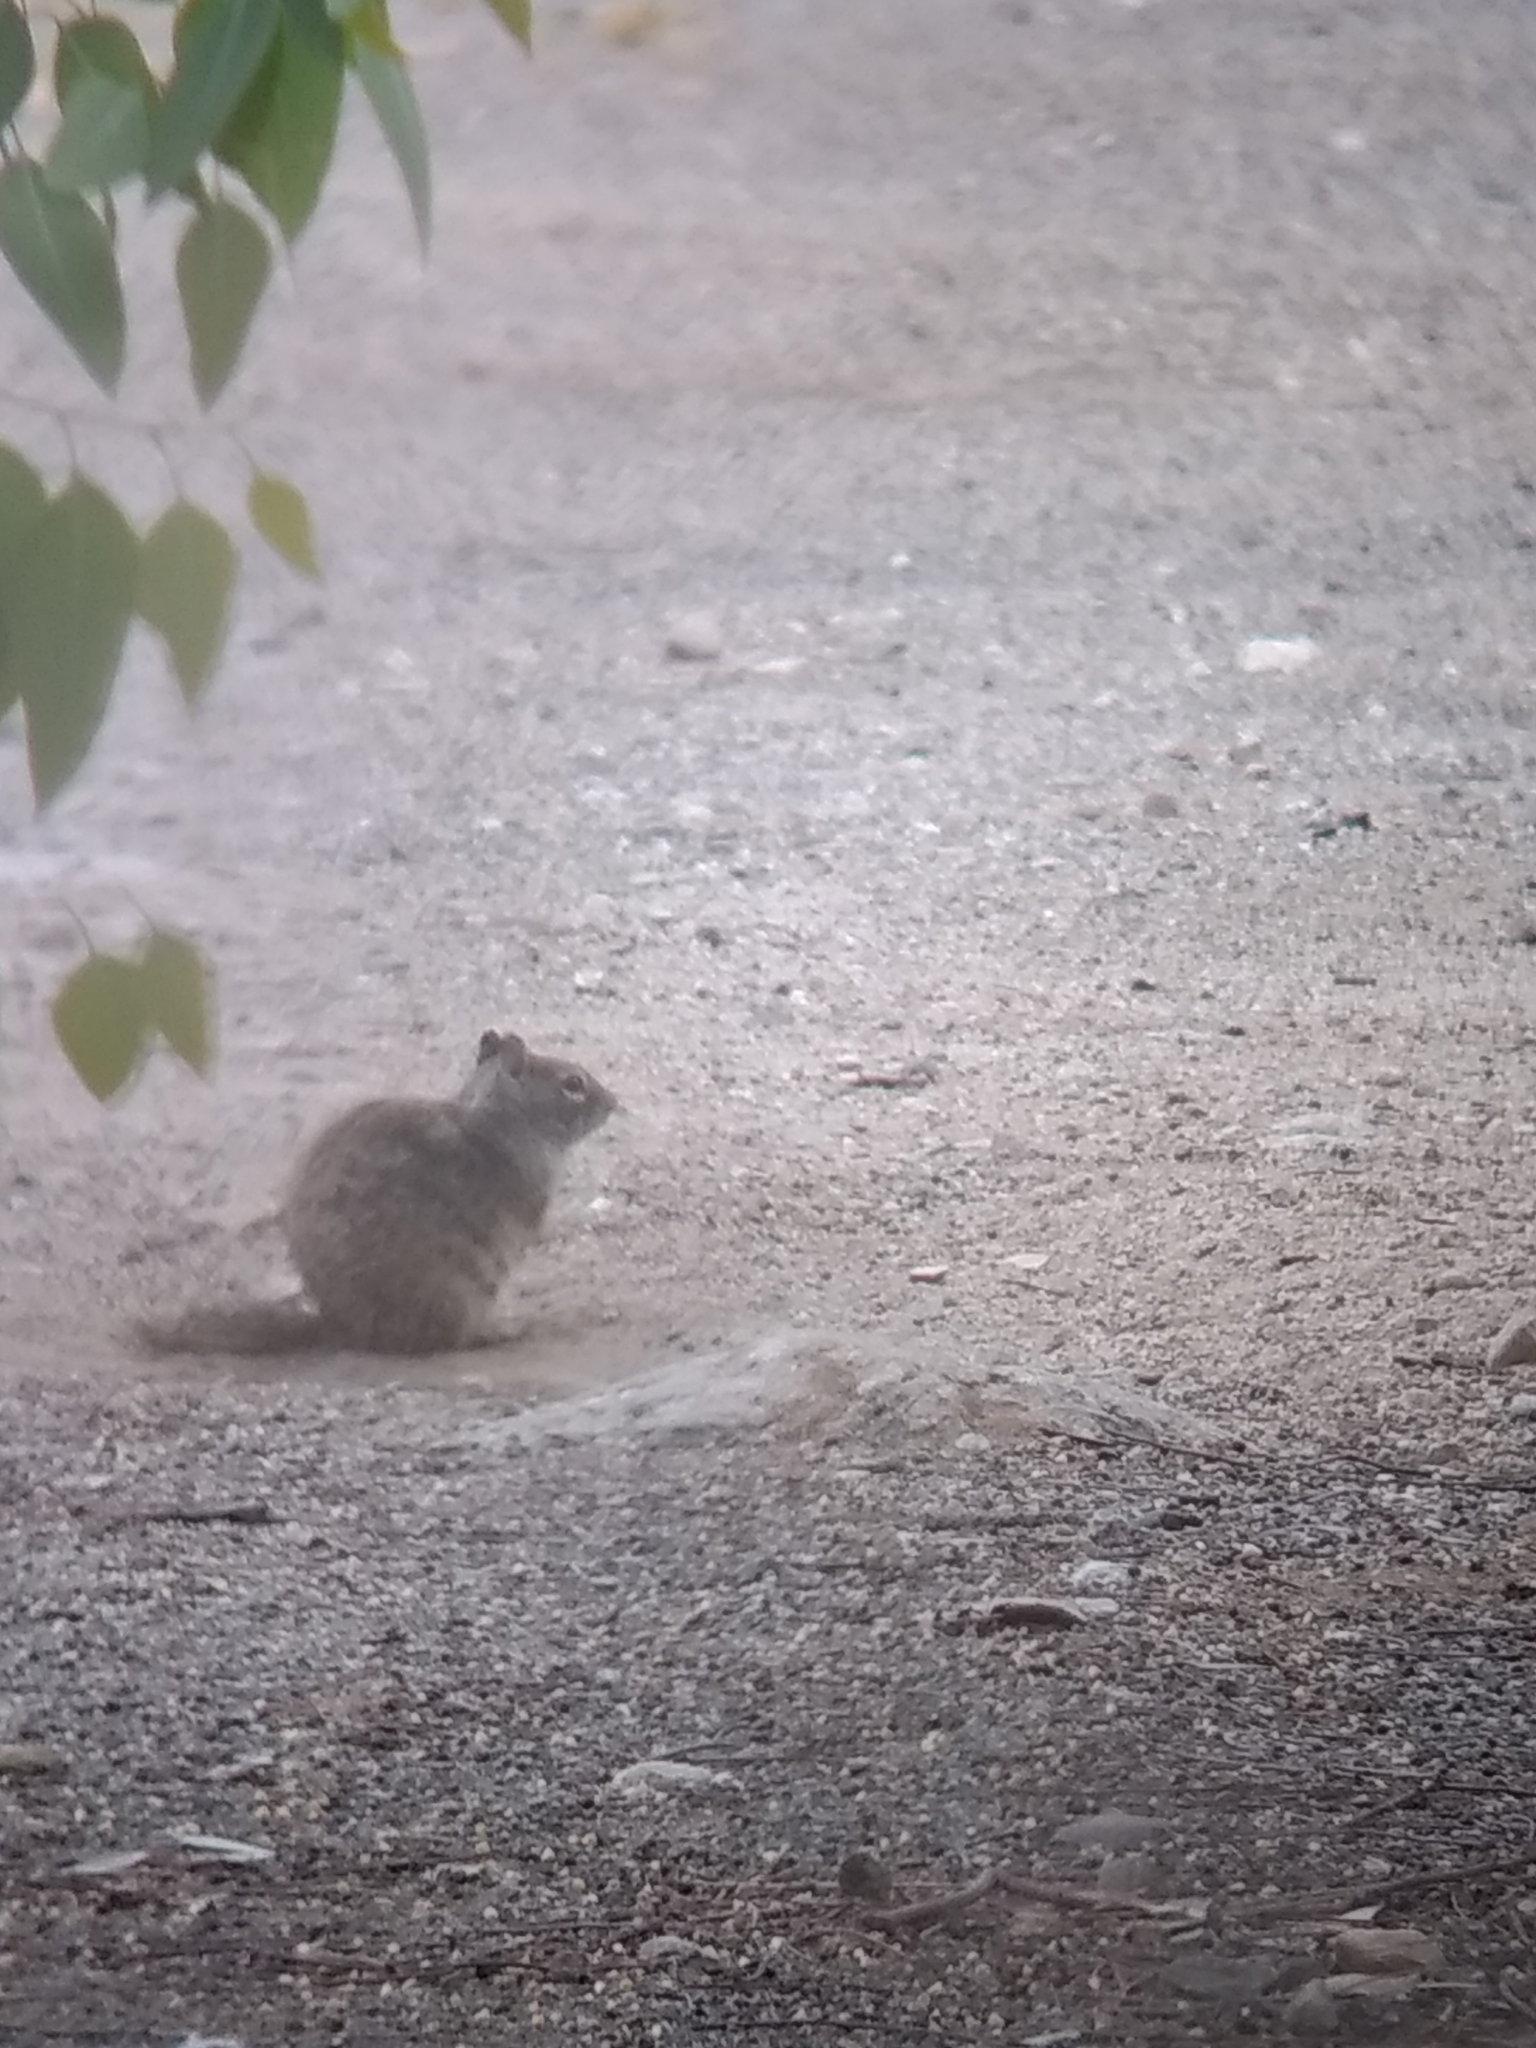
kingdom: Animalia
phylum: Chordata
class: Mammalia
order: Rodentia
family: Sciuridae
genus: Otospermophilus
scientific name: Otospermophilus beecheyi
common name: California ground squirrel
